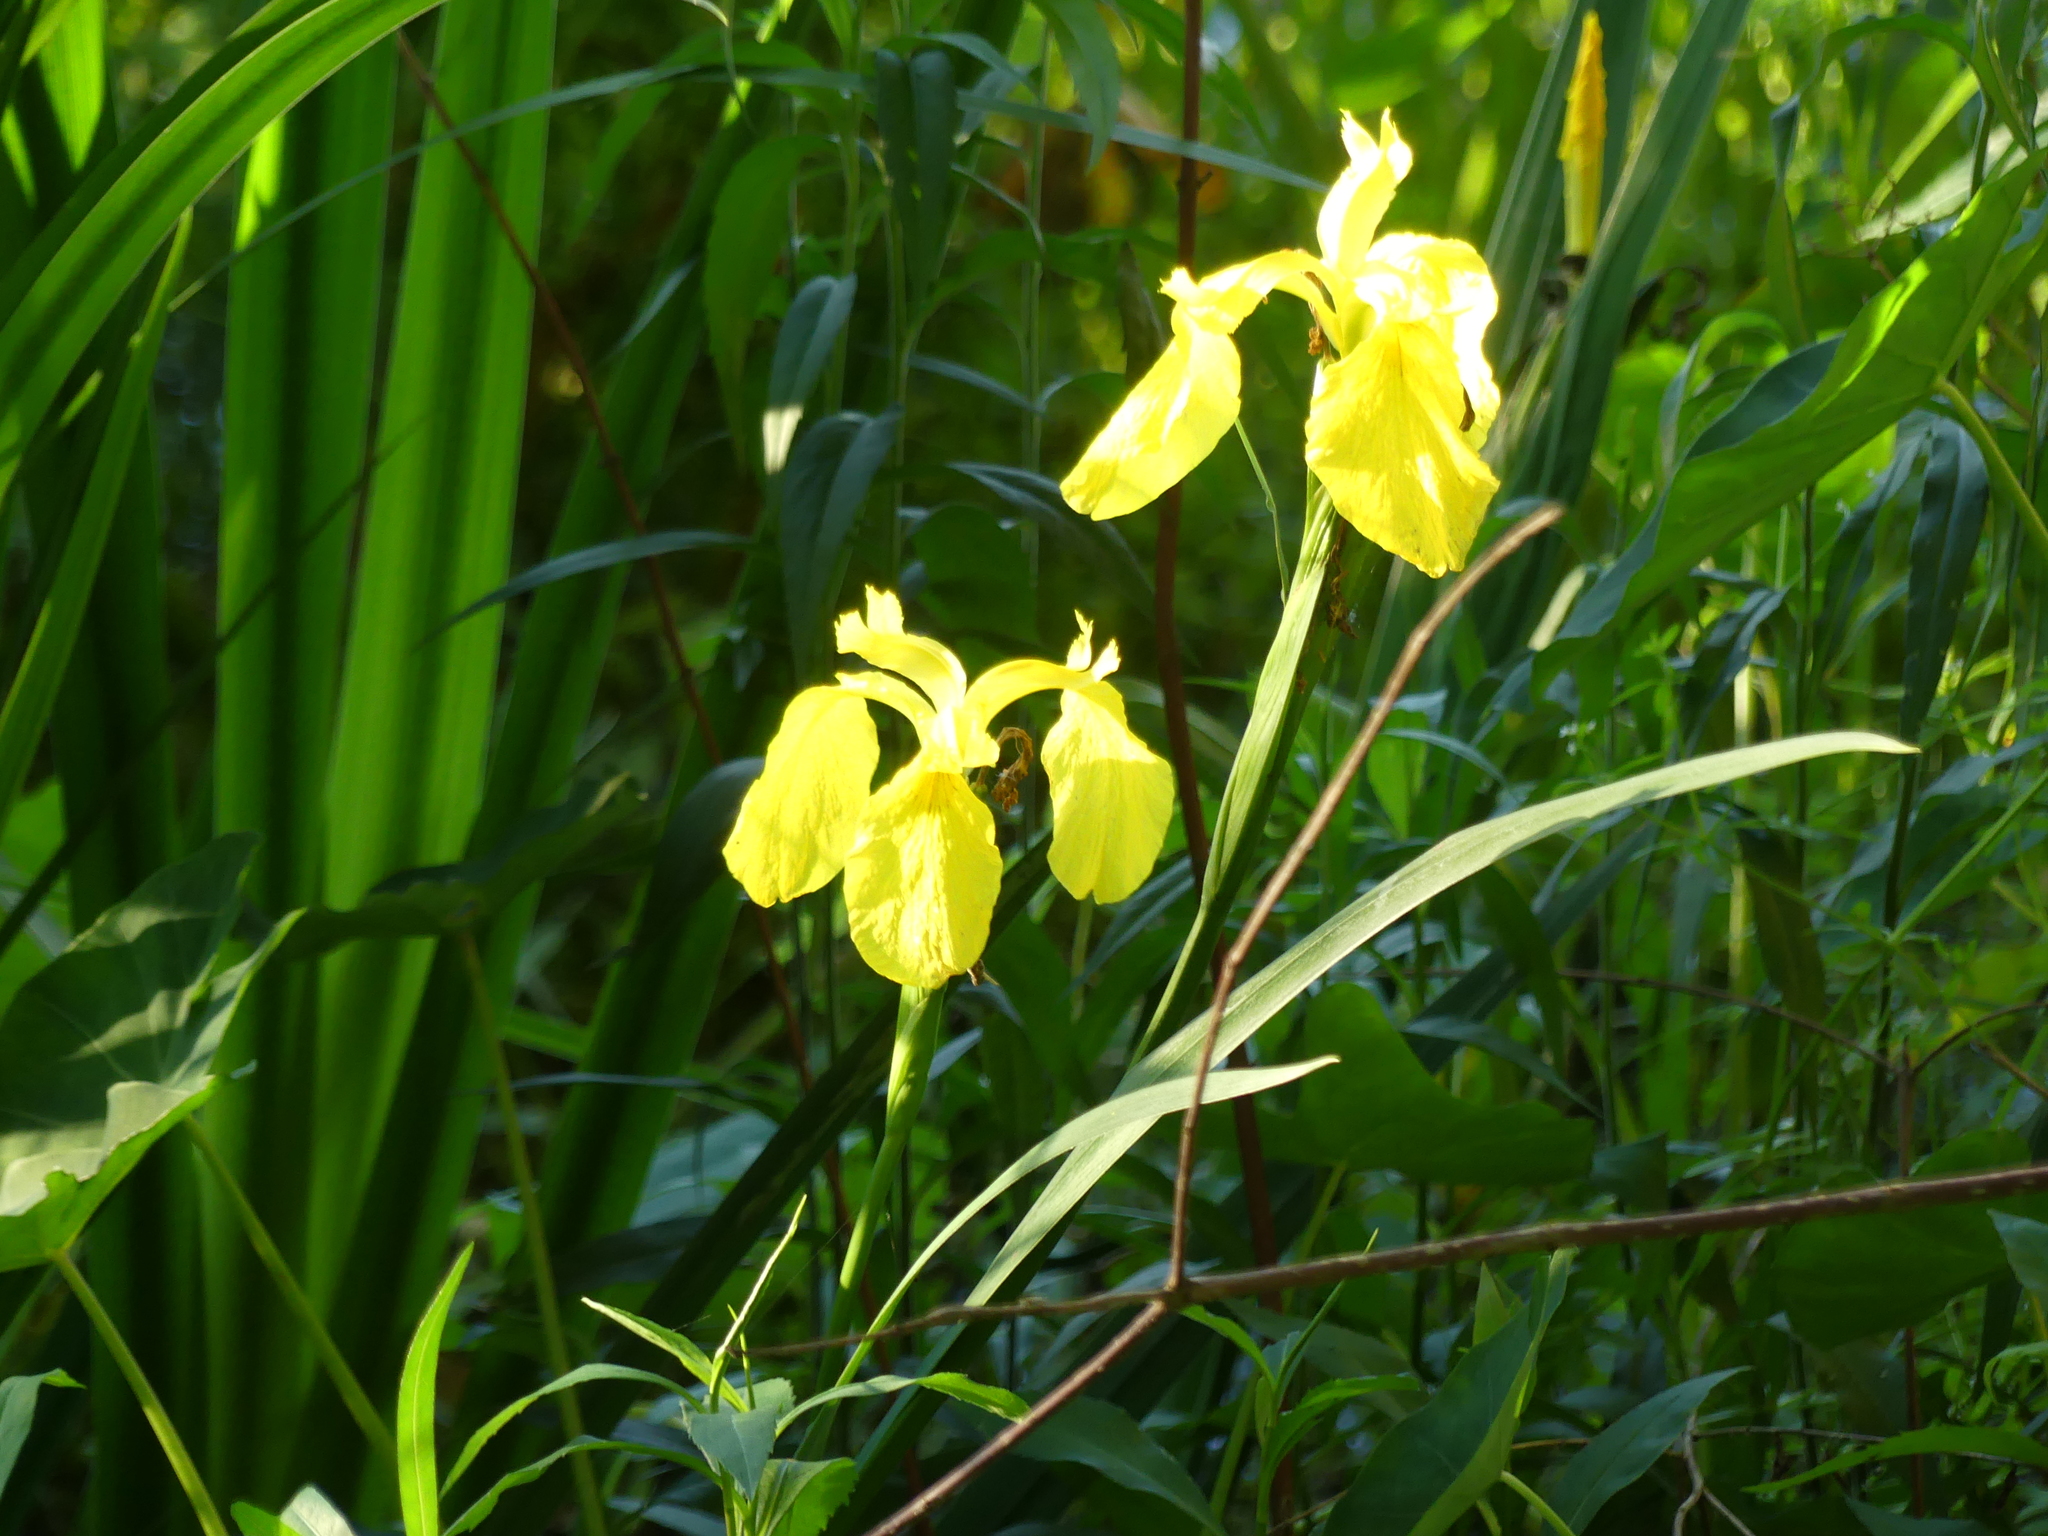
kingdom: Plantae
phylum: Tracheophyta
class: Liliopsida
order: Asparagales
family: Iridaceae
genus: Iris
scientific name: Iris pseudacorus
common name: Yellow flag
